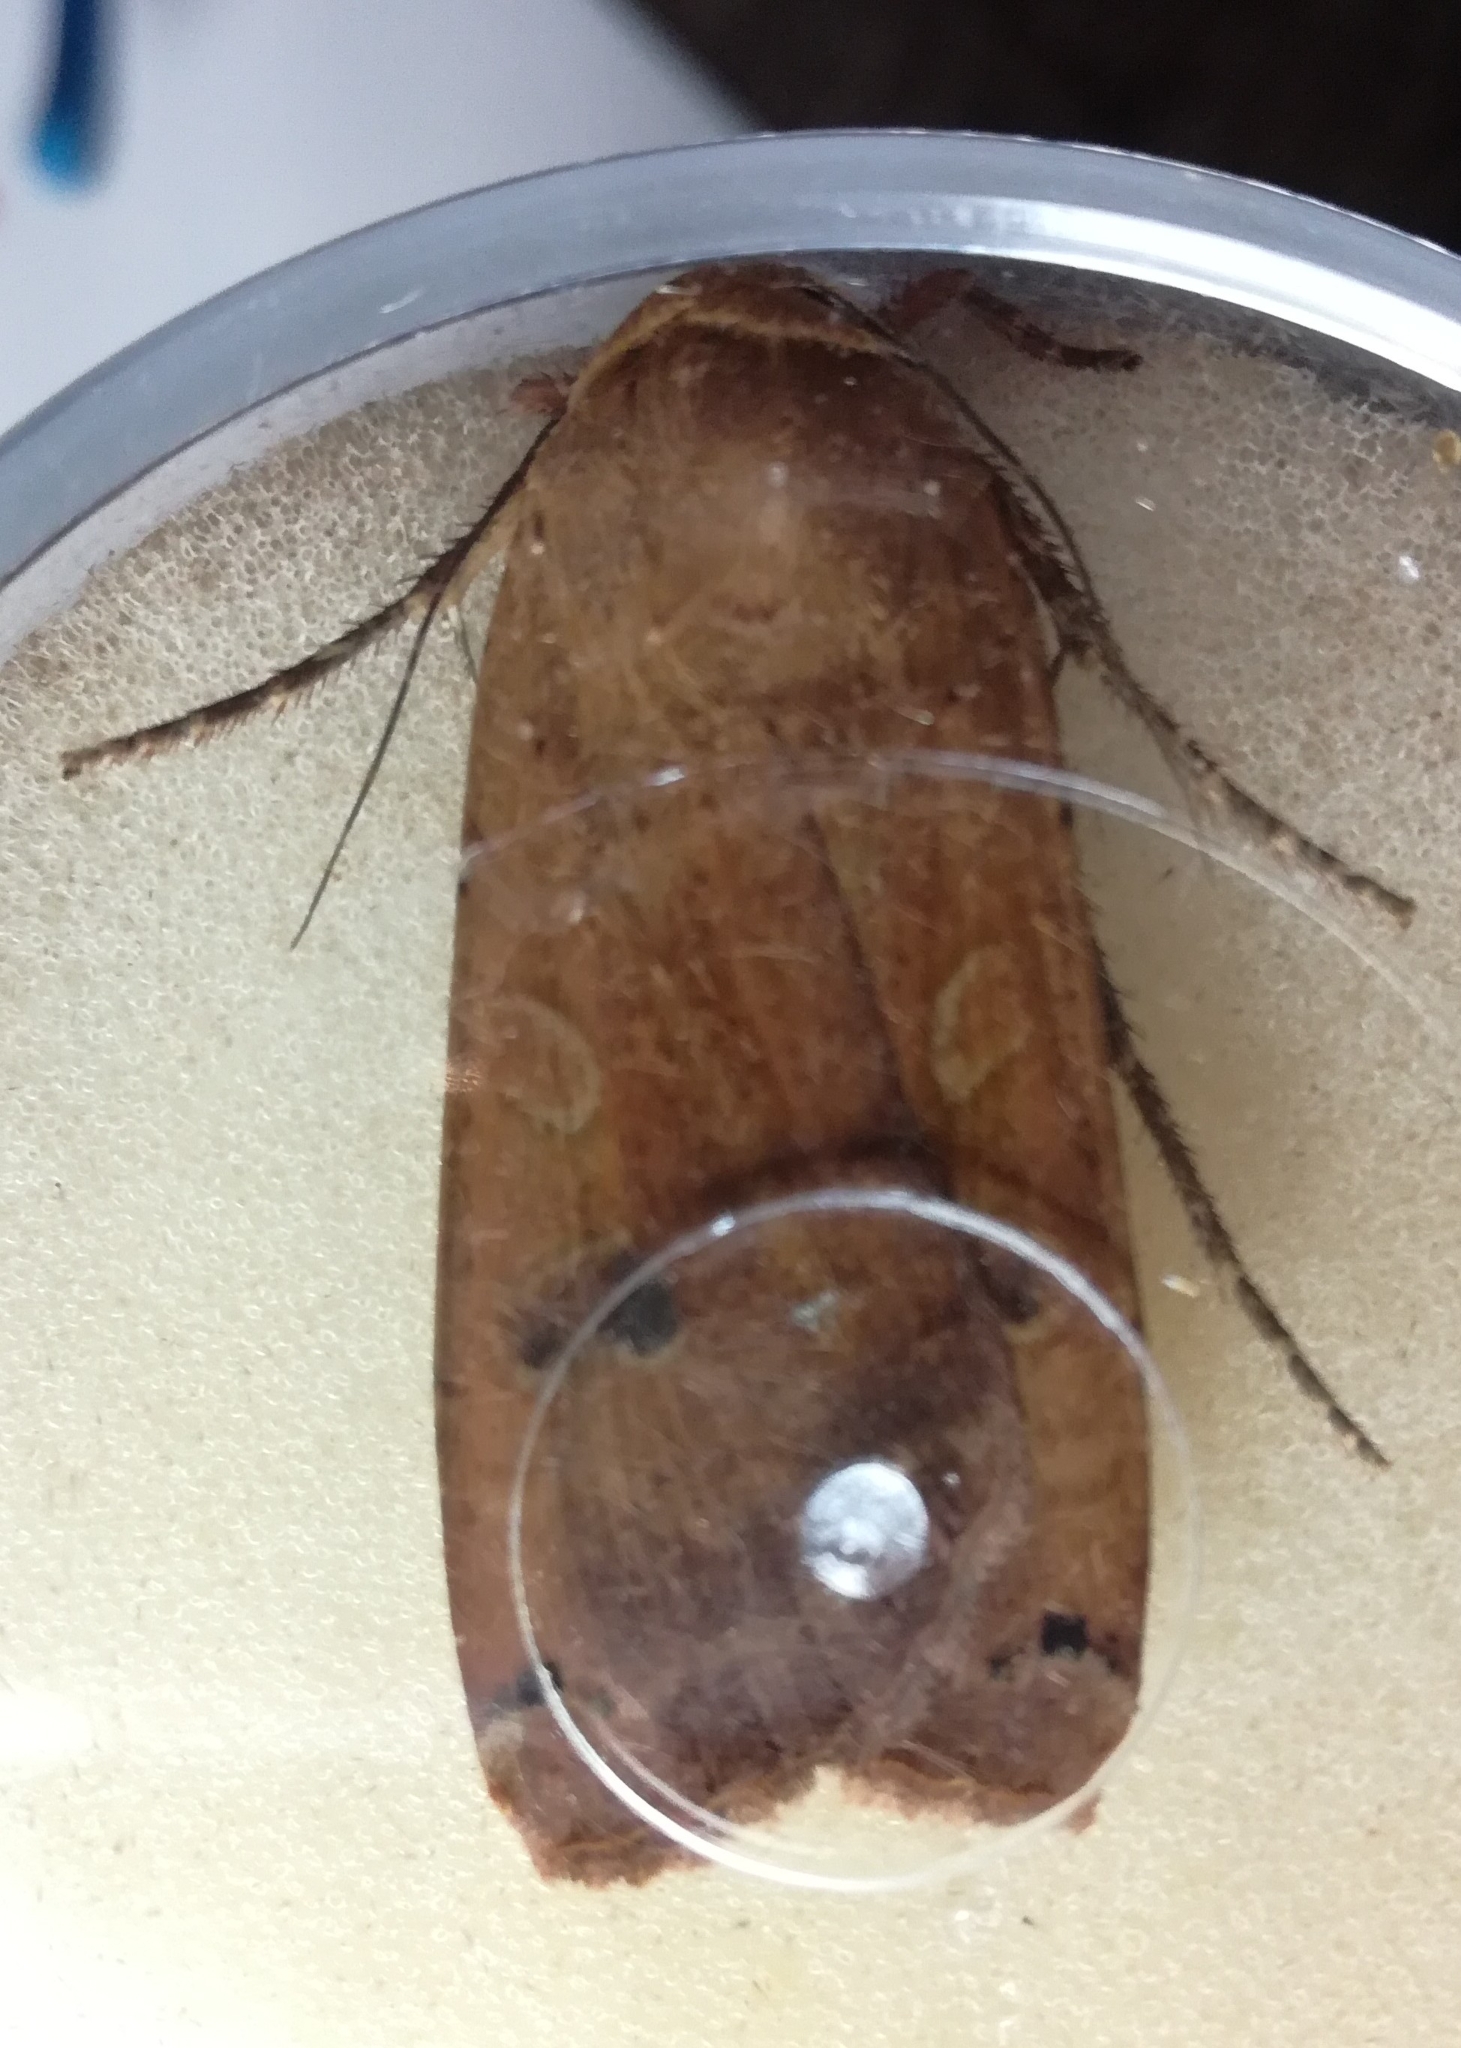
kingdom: Animalia
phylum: Arthropoda
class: Insecta
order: Lepidoptera
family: Noctuidae
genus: Noctua
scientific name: Noctua pronuba
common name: Large yellow underwing
